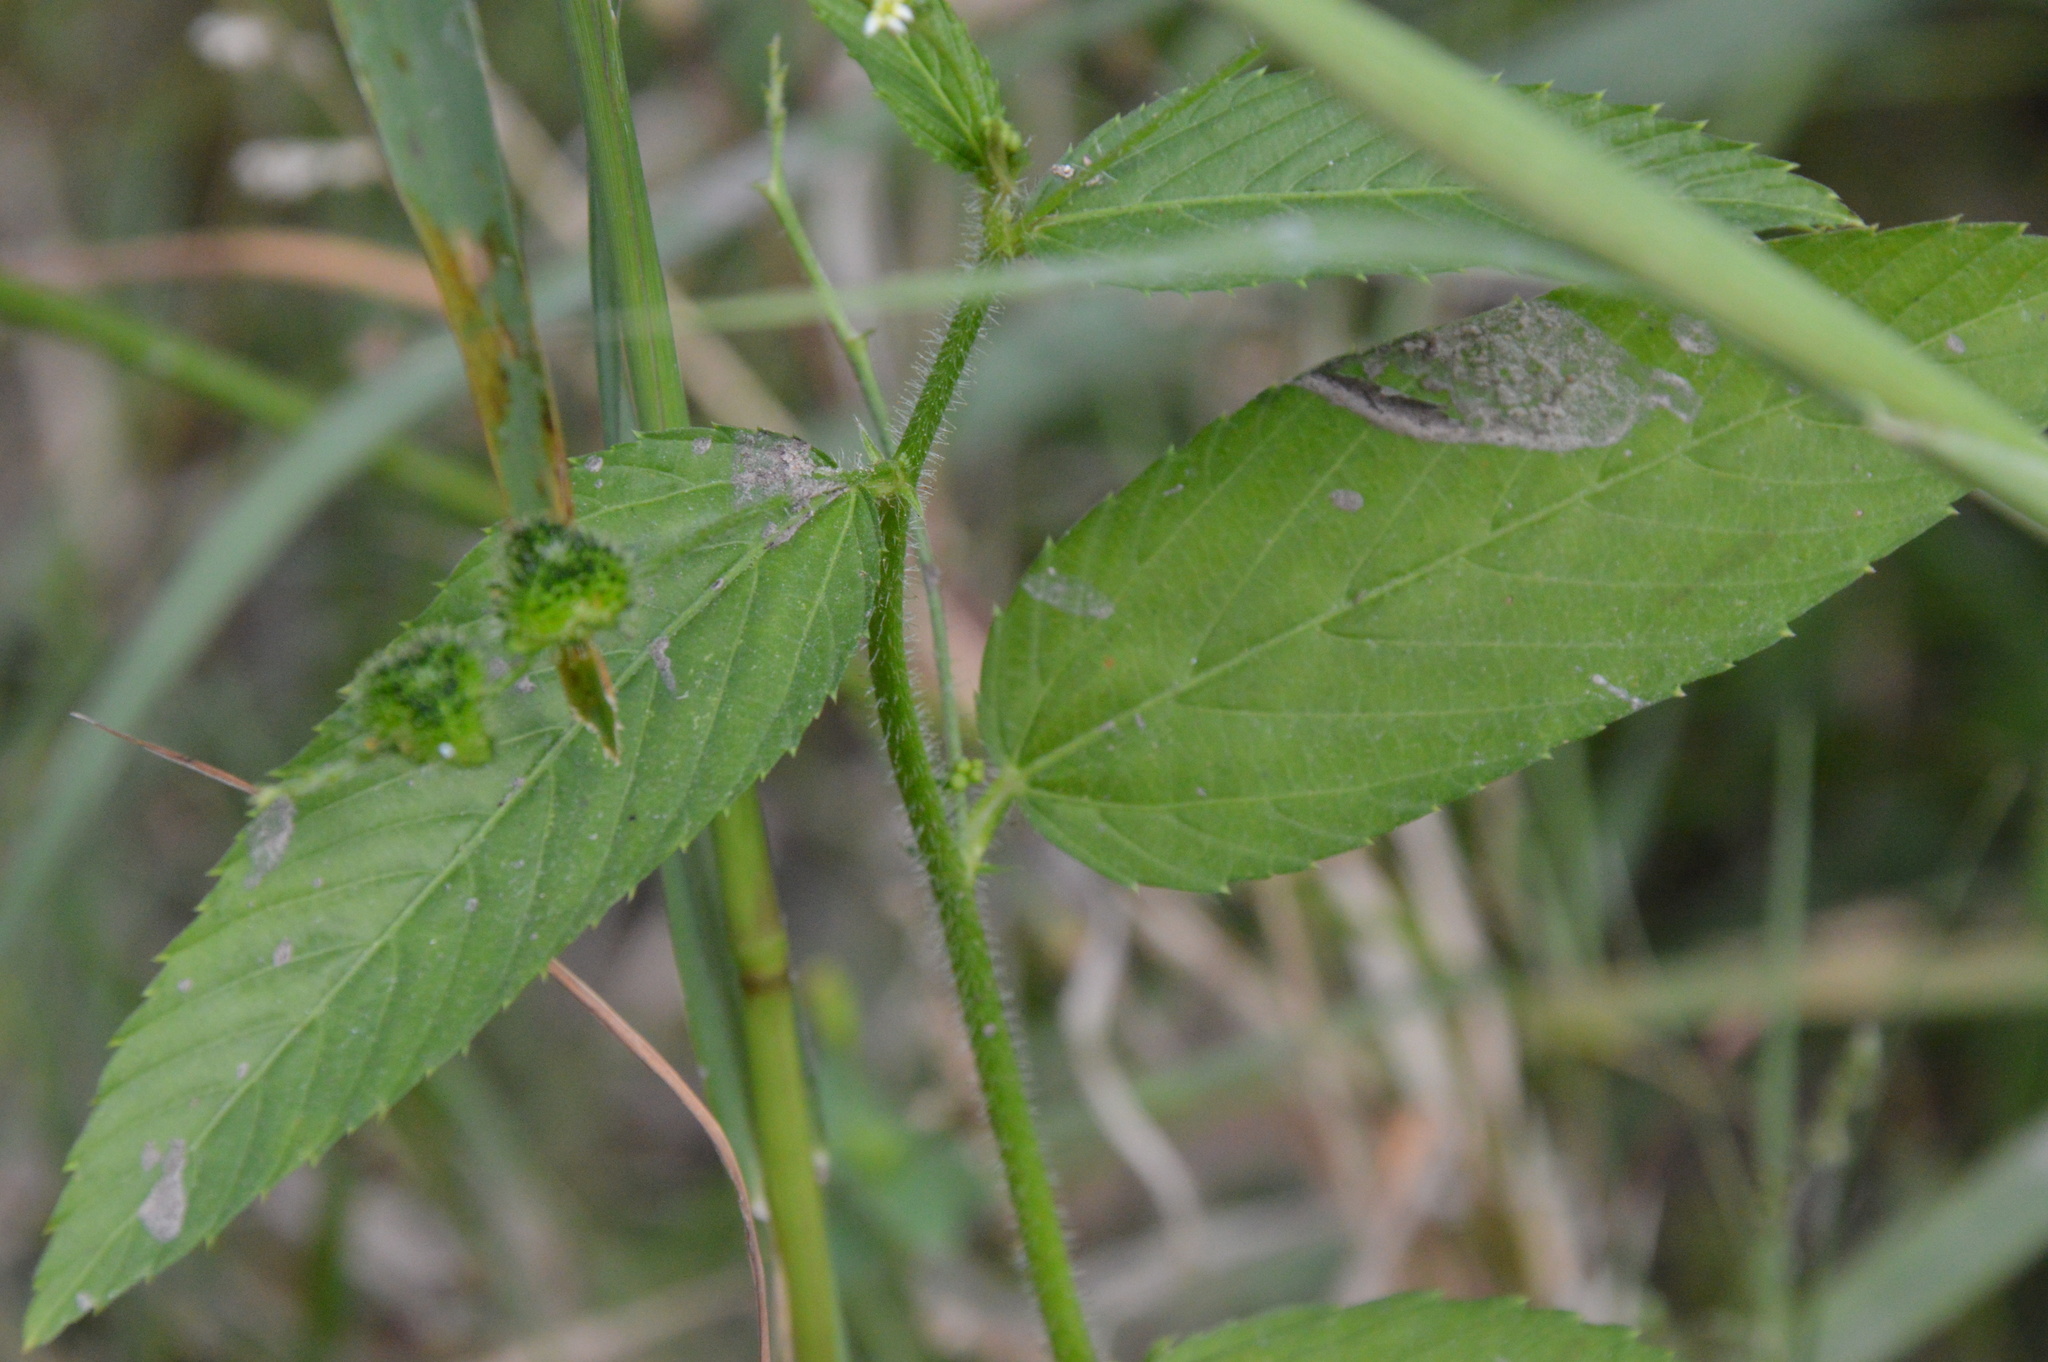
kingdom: Plantae
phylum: Tracheophyta
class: Magnoliopsida
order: Malpighiales
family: Euphorbiaceae
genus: Caperonia
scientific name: Caperonia palustris
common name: Sacatrapo
